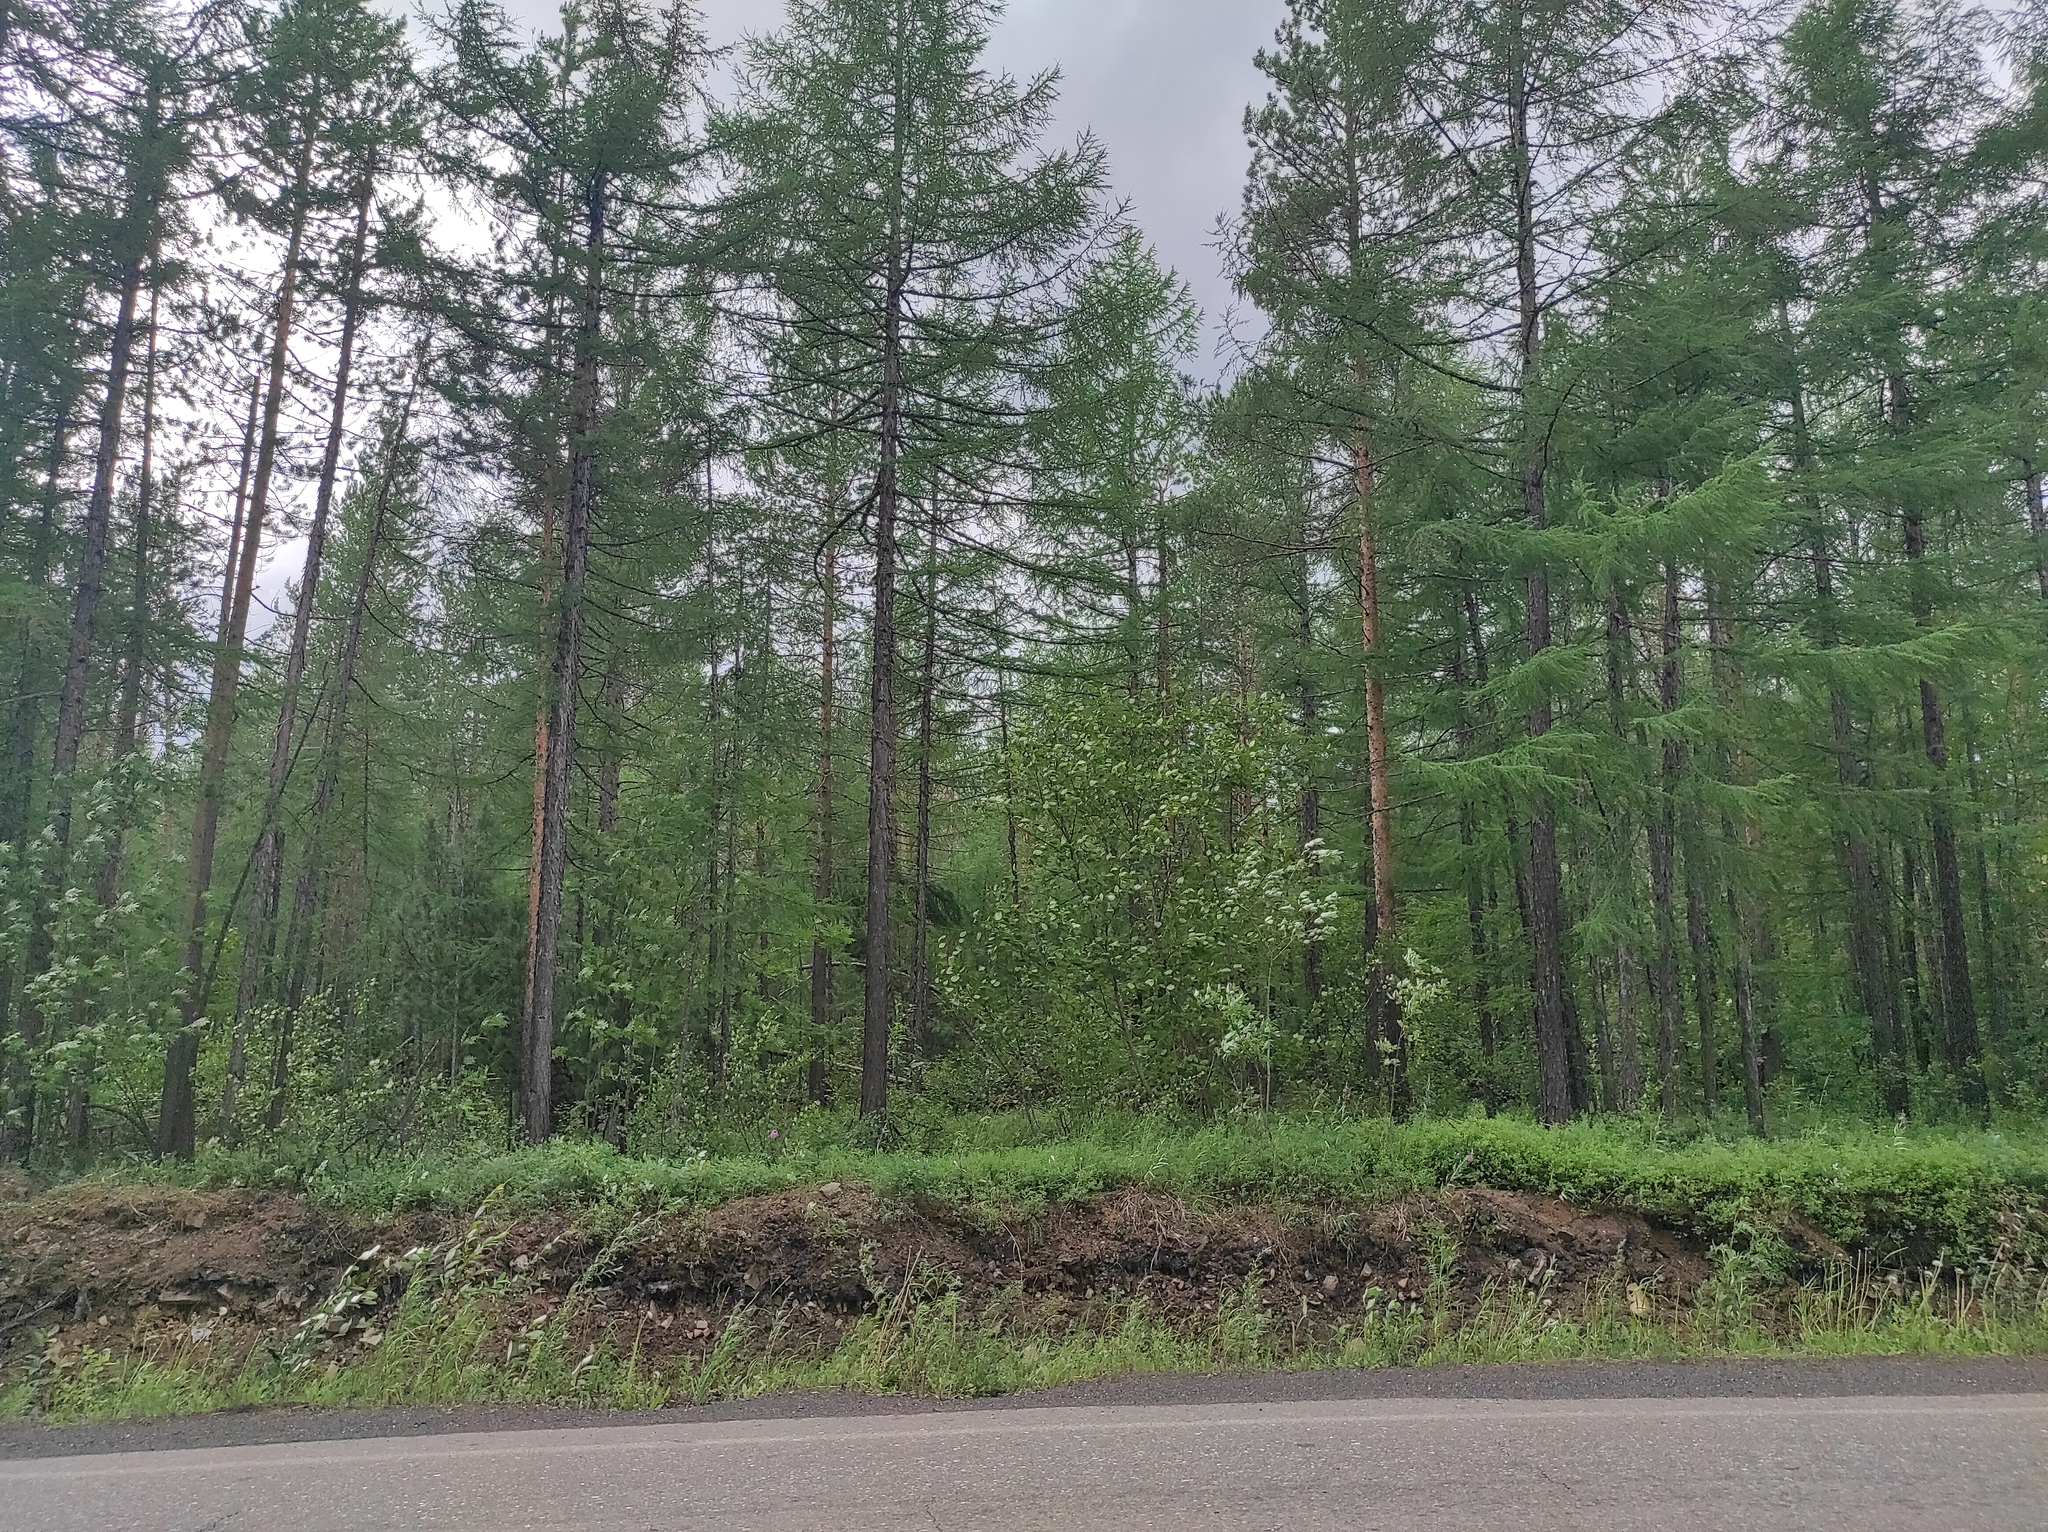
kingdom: Plantae
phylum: Tracheophyta
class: Pinopsida
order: Pinales
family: Pinaceae
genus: Larix
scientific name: Larix gmelinii
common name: Dahurian larch
